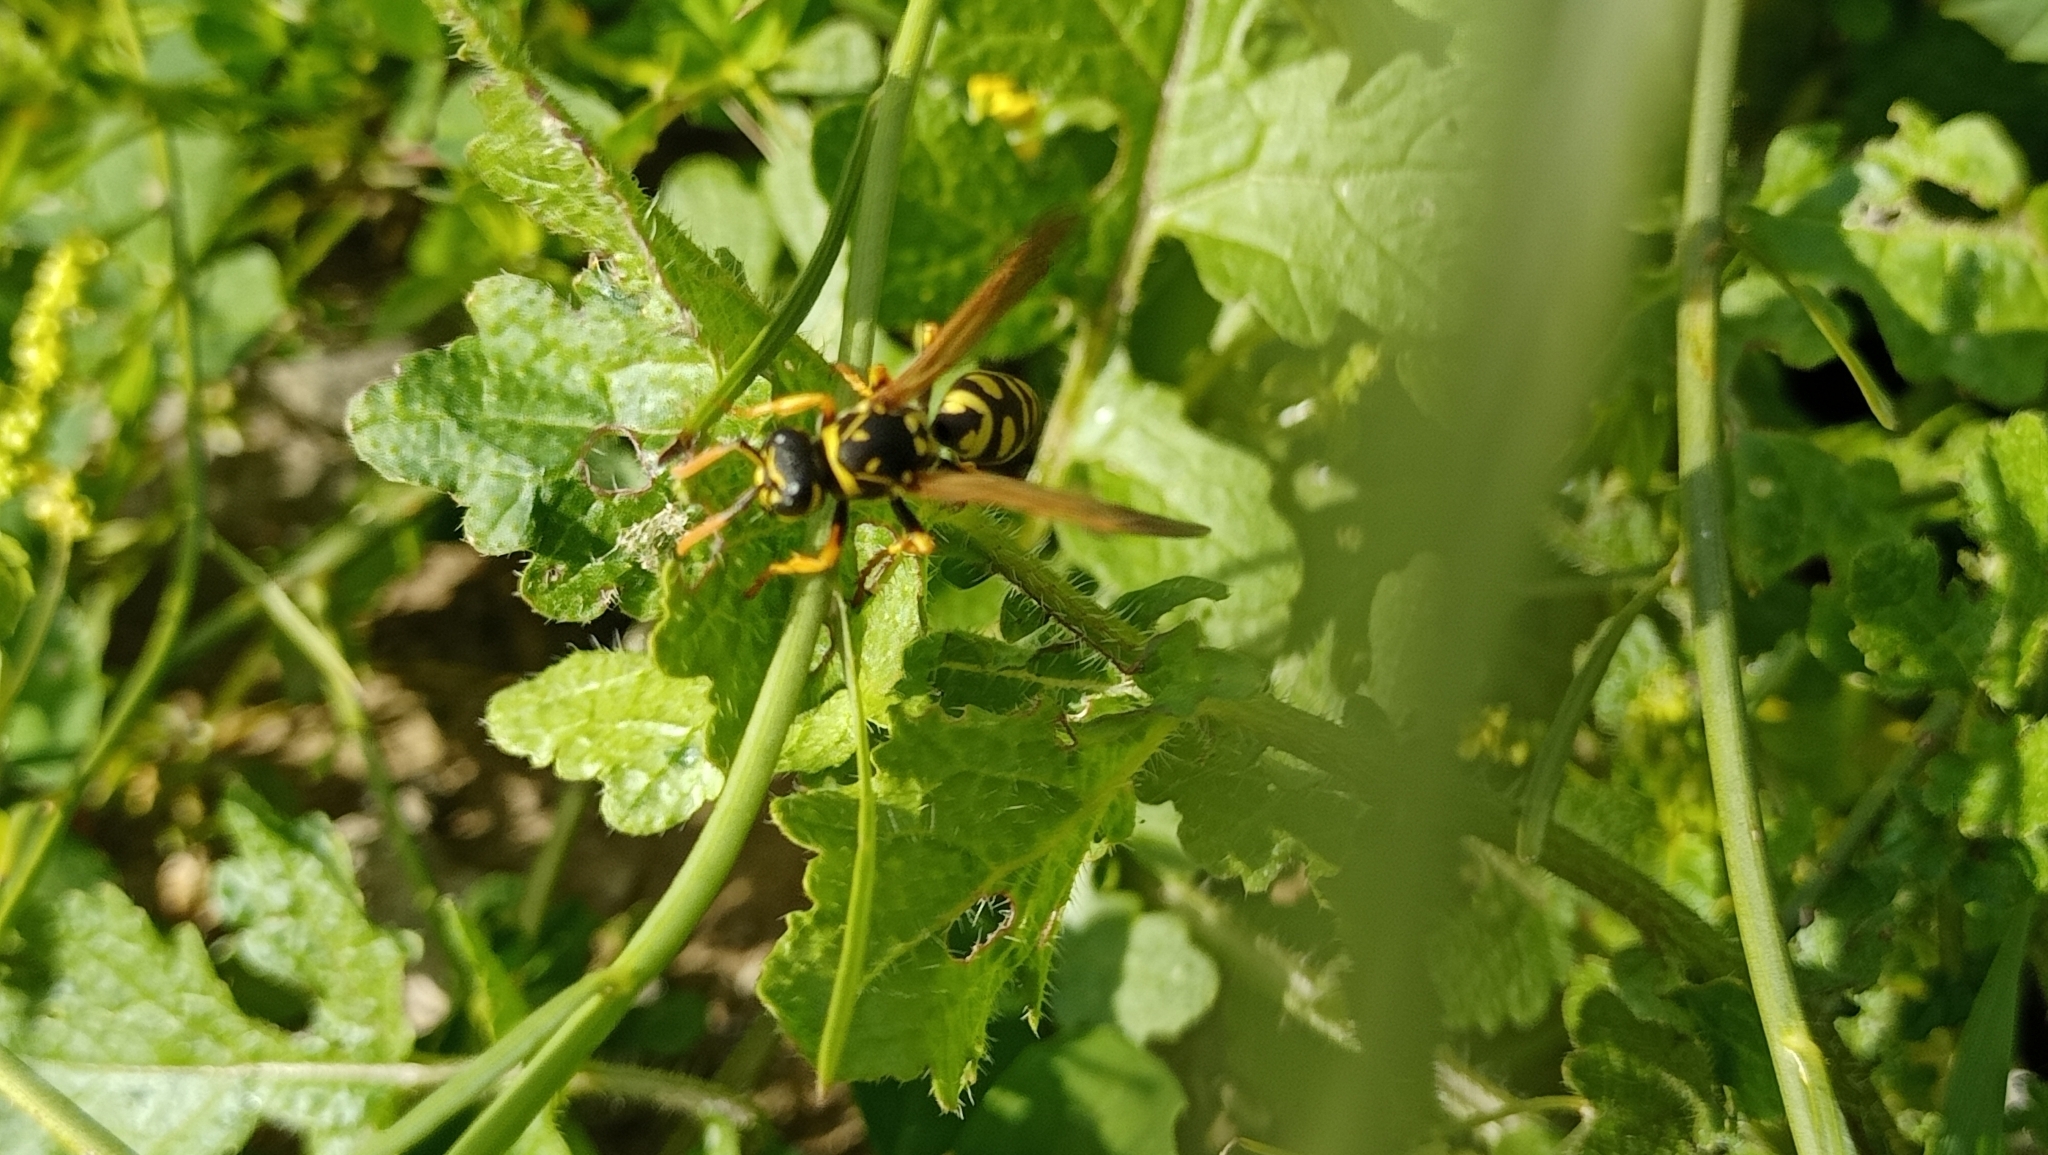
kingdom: Animalia
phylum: Arthropoda
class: Insecta
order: Hymenoptera
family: Eumenidae
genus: Polistes
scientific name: Polistes dominula
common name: Paper wasp
